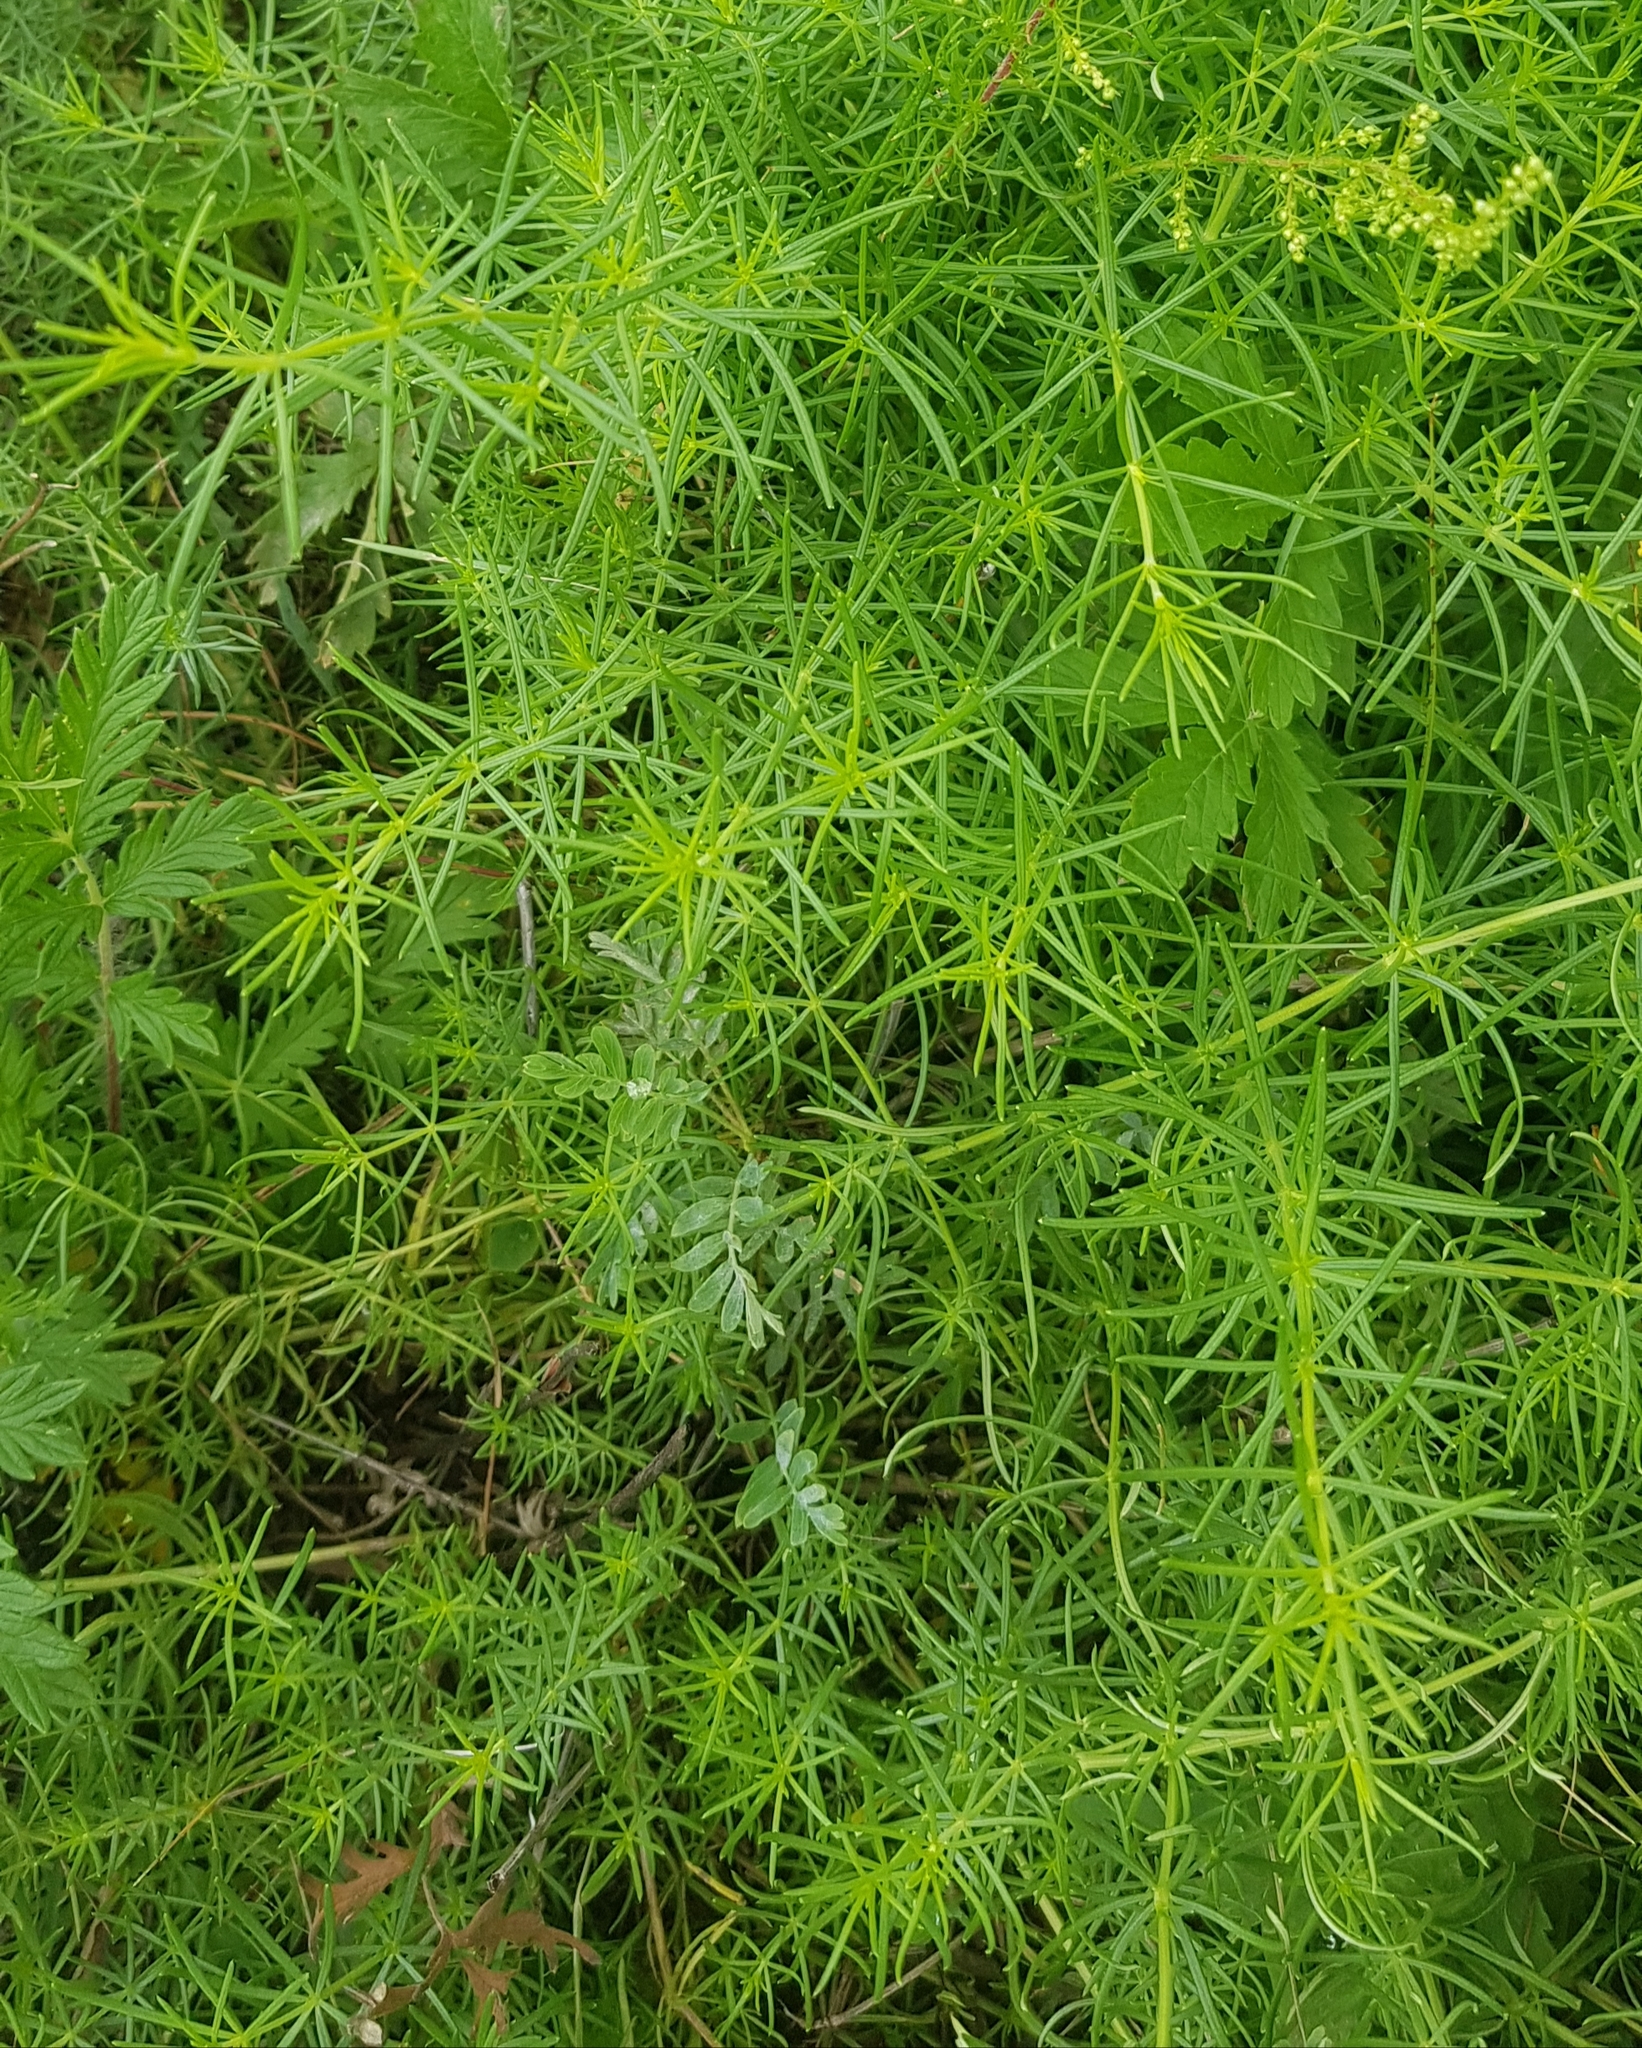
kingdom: Plantae
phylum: Tracheophyta
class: Magnoliopsida
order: Gentianales
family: Rubiaceae
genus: Galium
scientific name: Galium verum
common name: Lady's bedstraw
